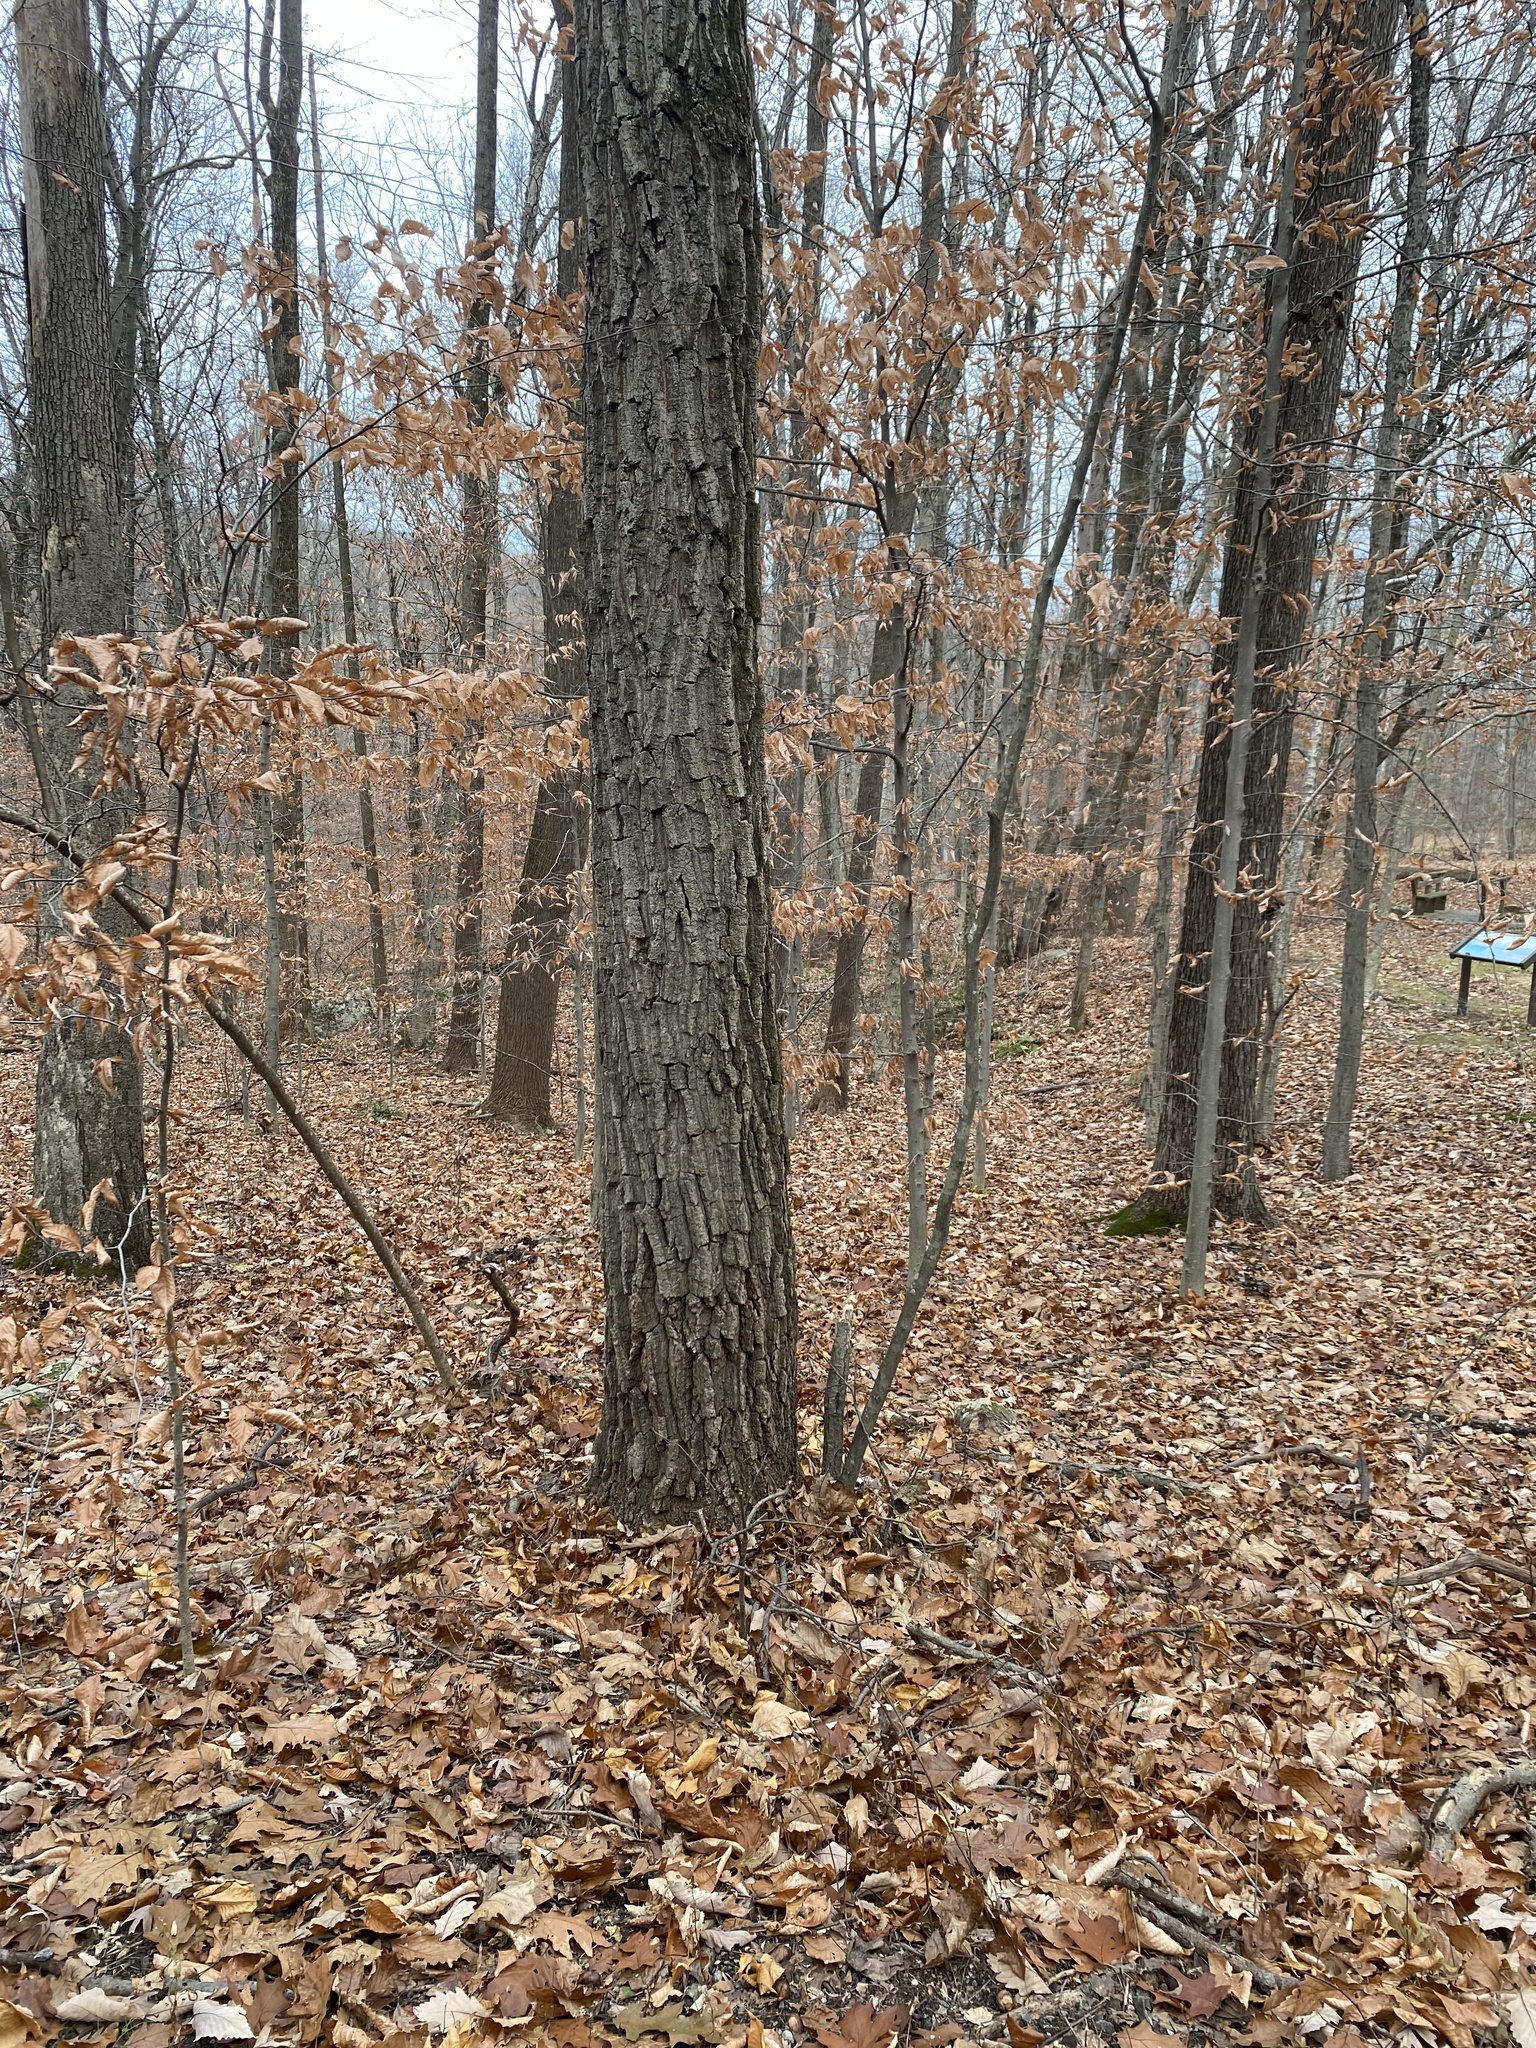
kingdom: Plantae
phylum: Tracheophyta
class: Magnoliopsida
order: Fagales
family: Fagaceae
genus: Quercus
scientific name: Quercus montana
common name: Chestnut oak
